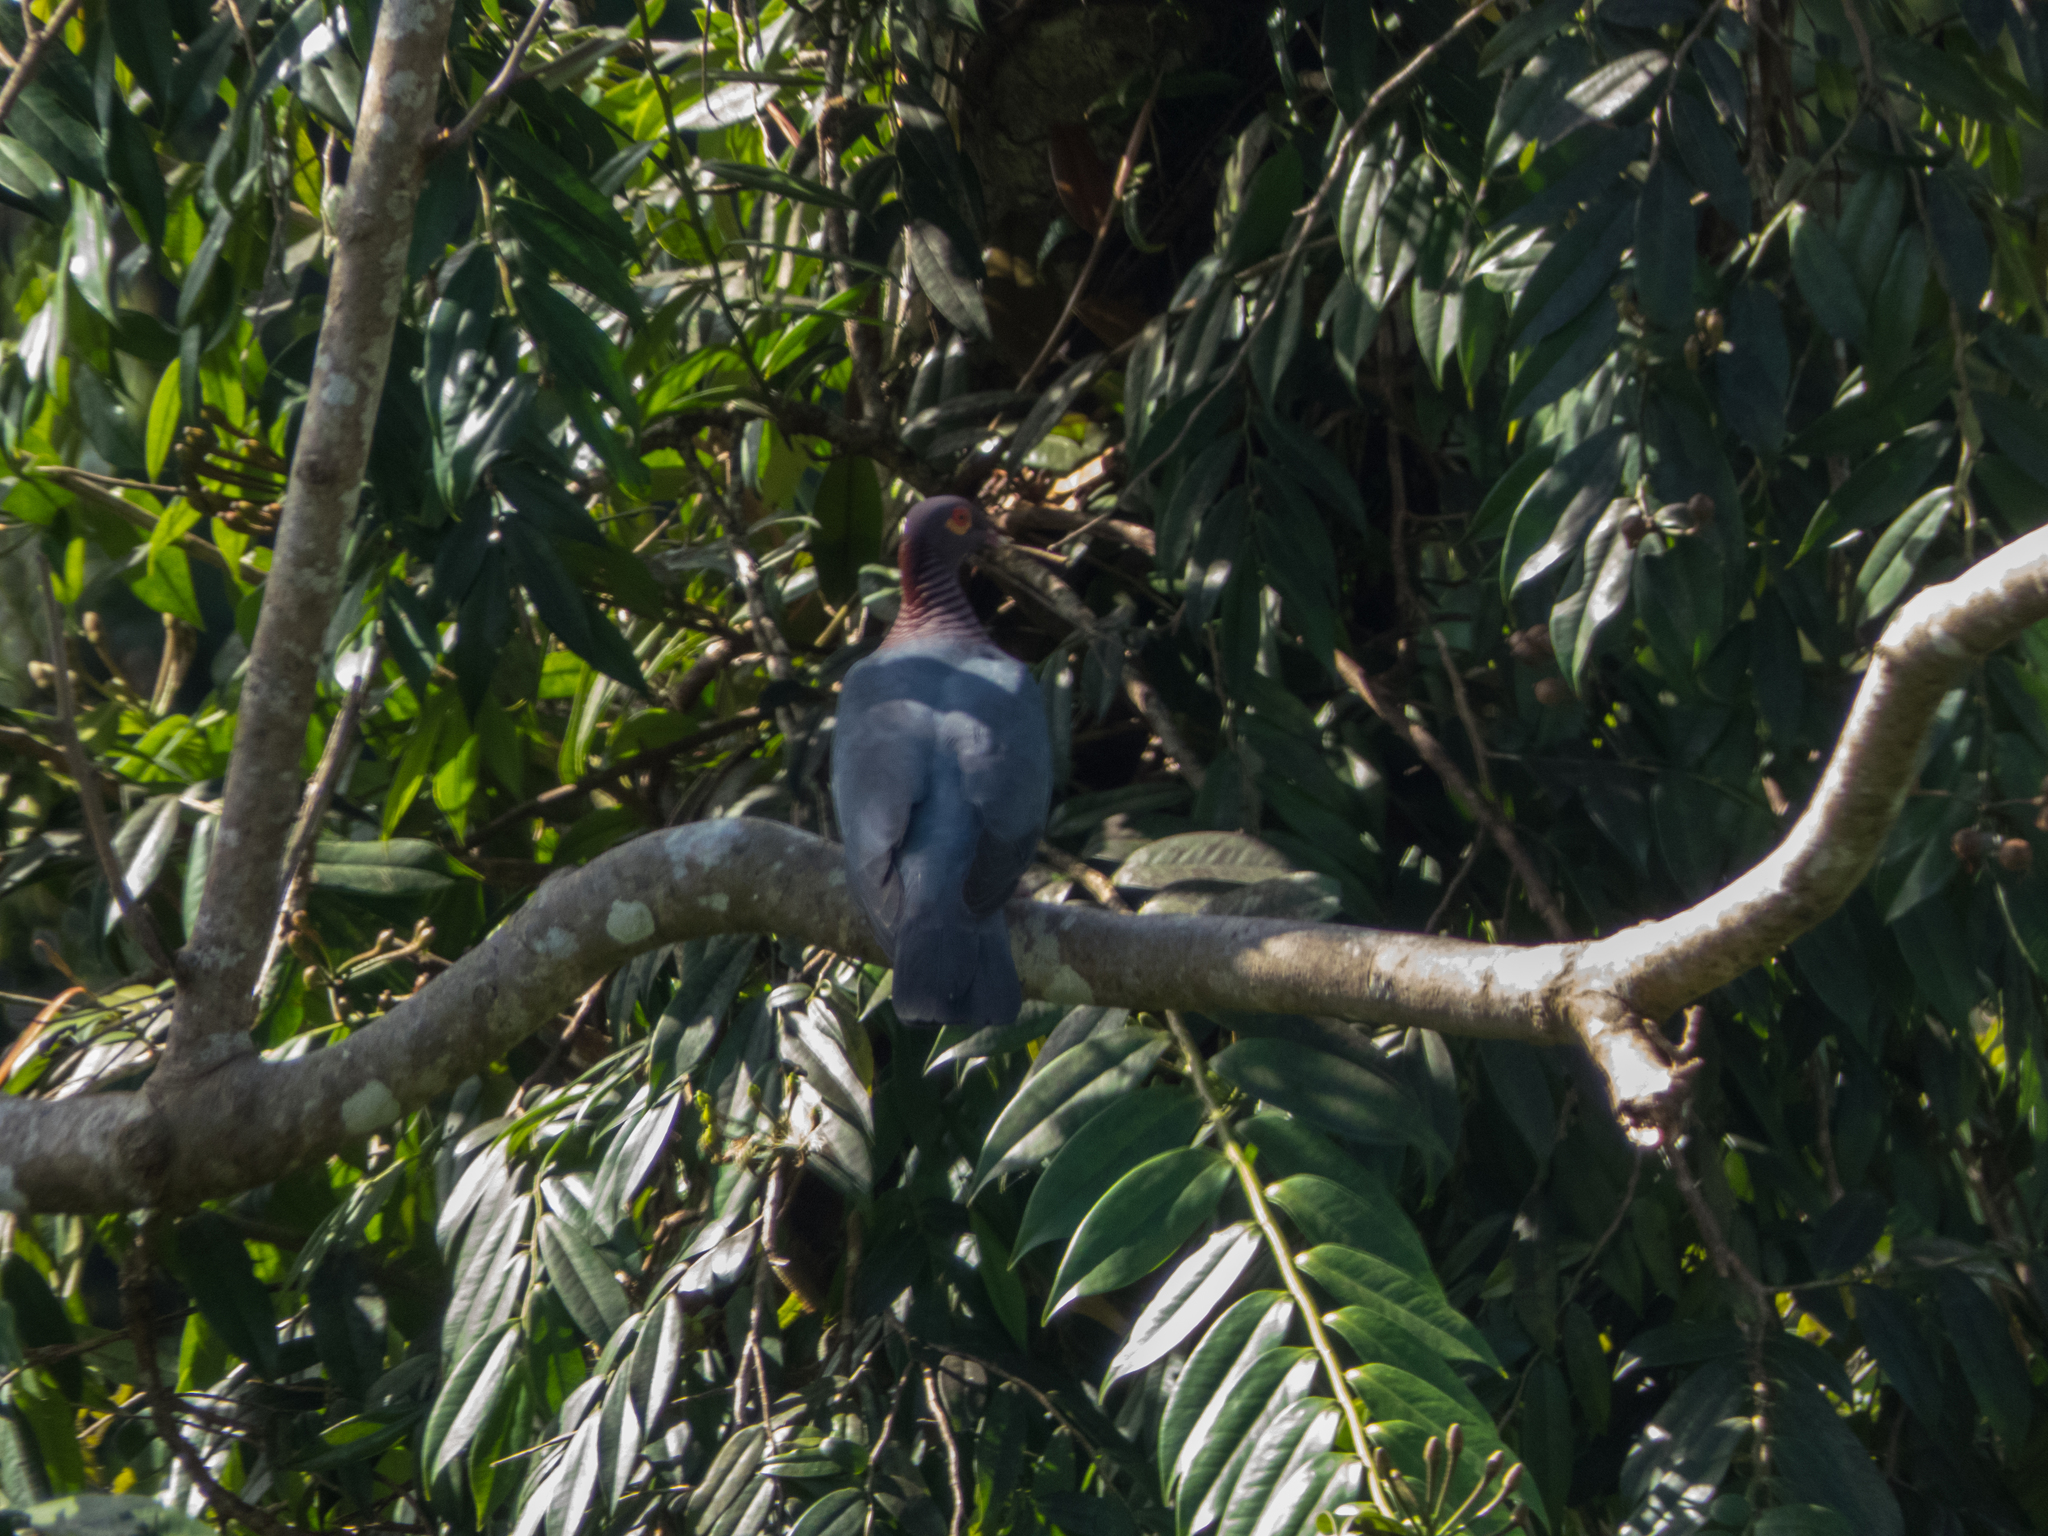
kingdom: Animalia
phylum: Chordata
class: Aves
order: Columbiformes
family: Columbidae
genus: Patagioenas
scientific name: Patagioenas squamosa
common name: Scaly-naped pigeon
